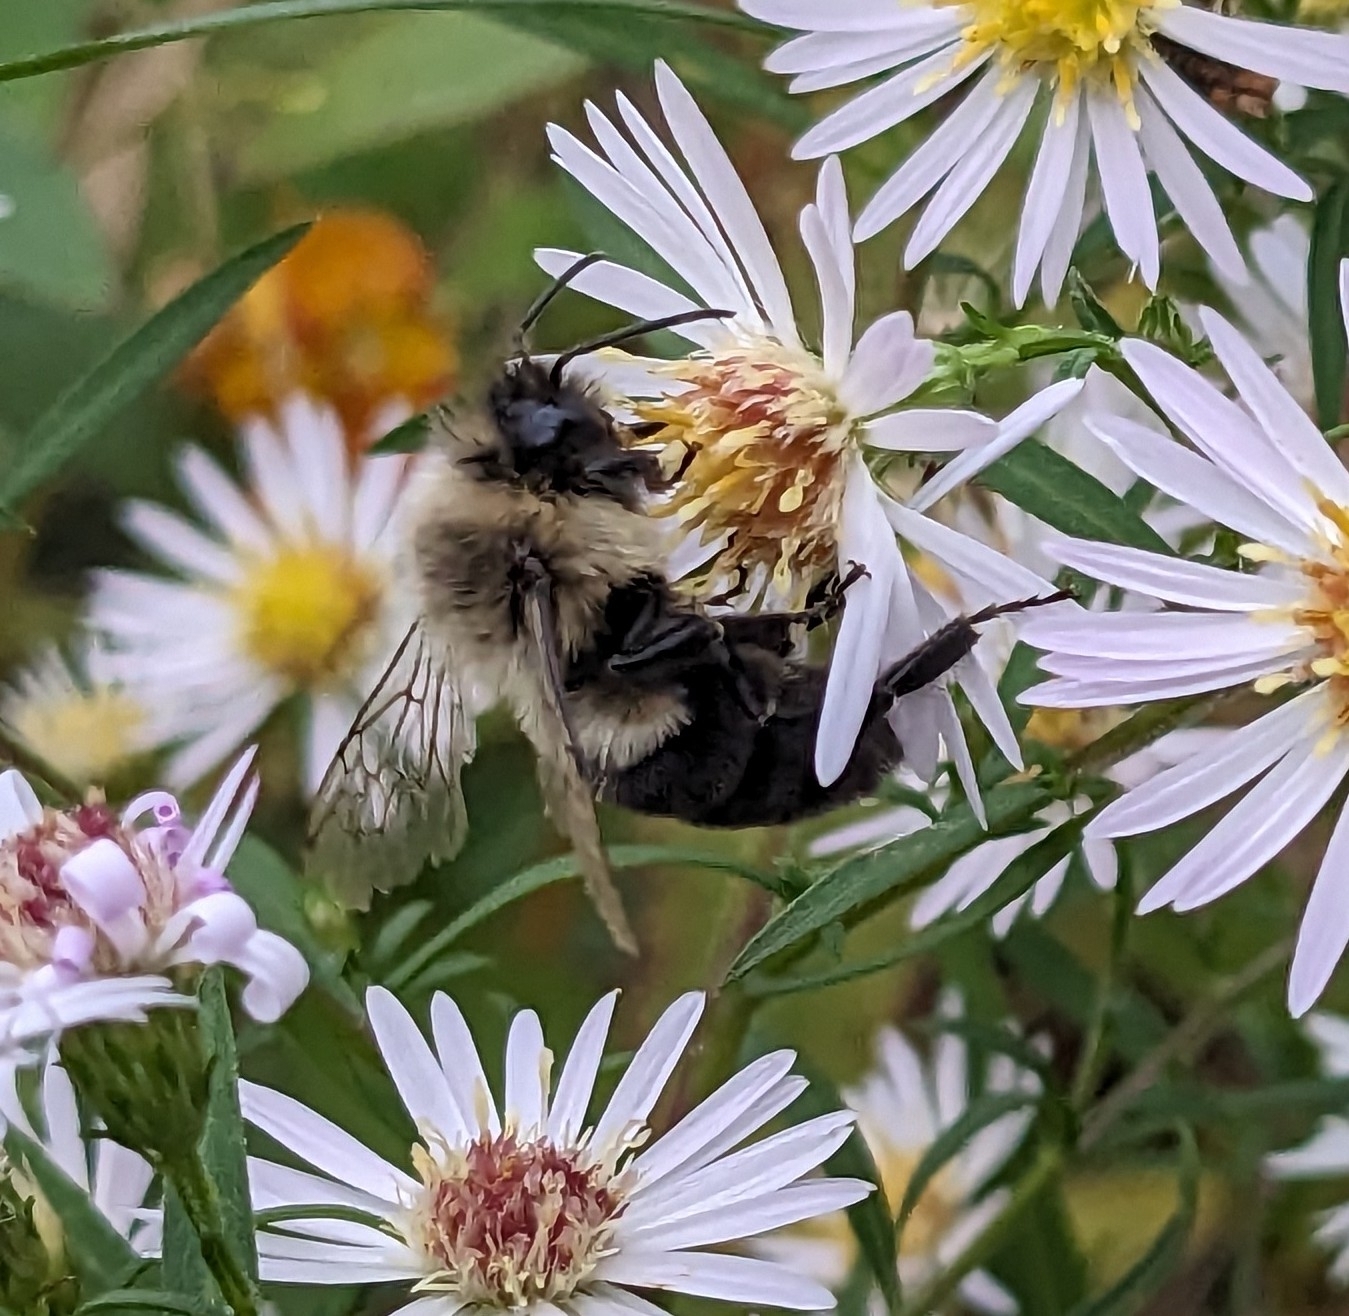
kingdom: Animalia
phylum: Arthropoda
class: Insecta
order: Hymenoptera
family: Apidae
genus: Bombus
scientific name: Bombus impatiens
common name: Common eastern bumble bee
